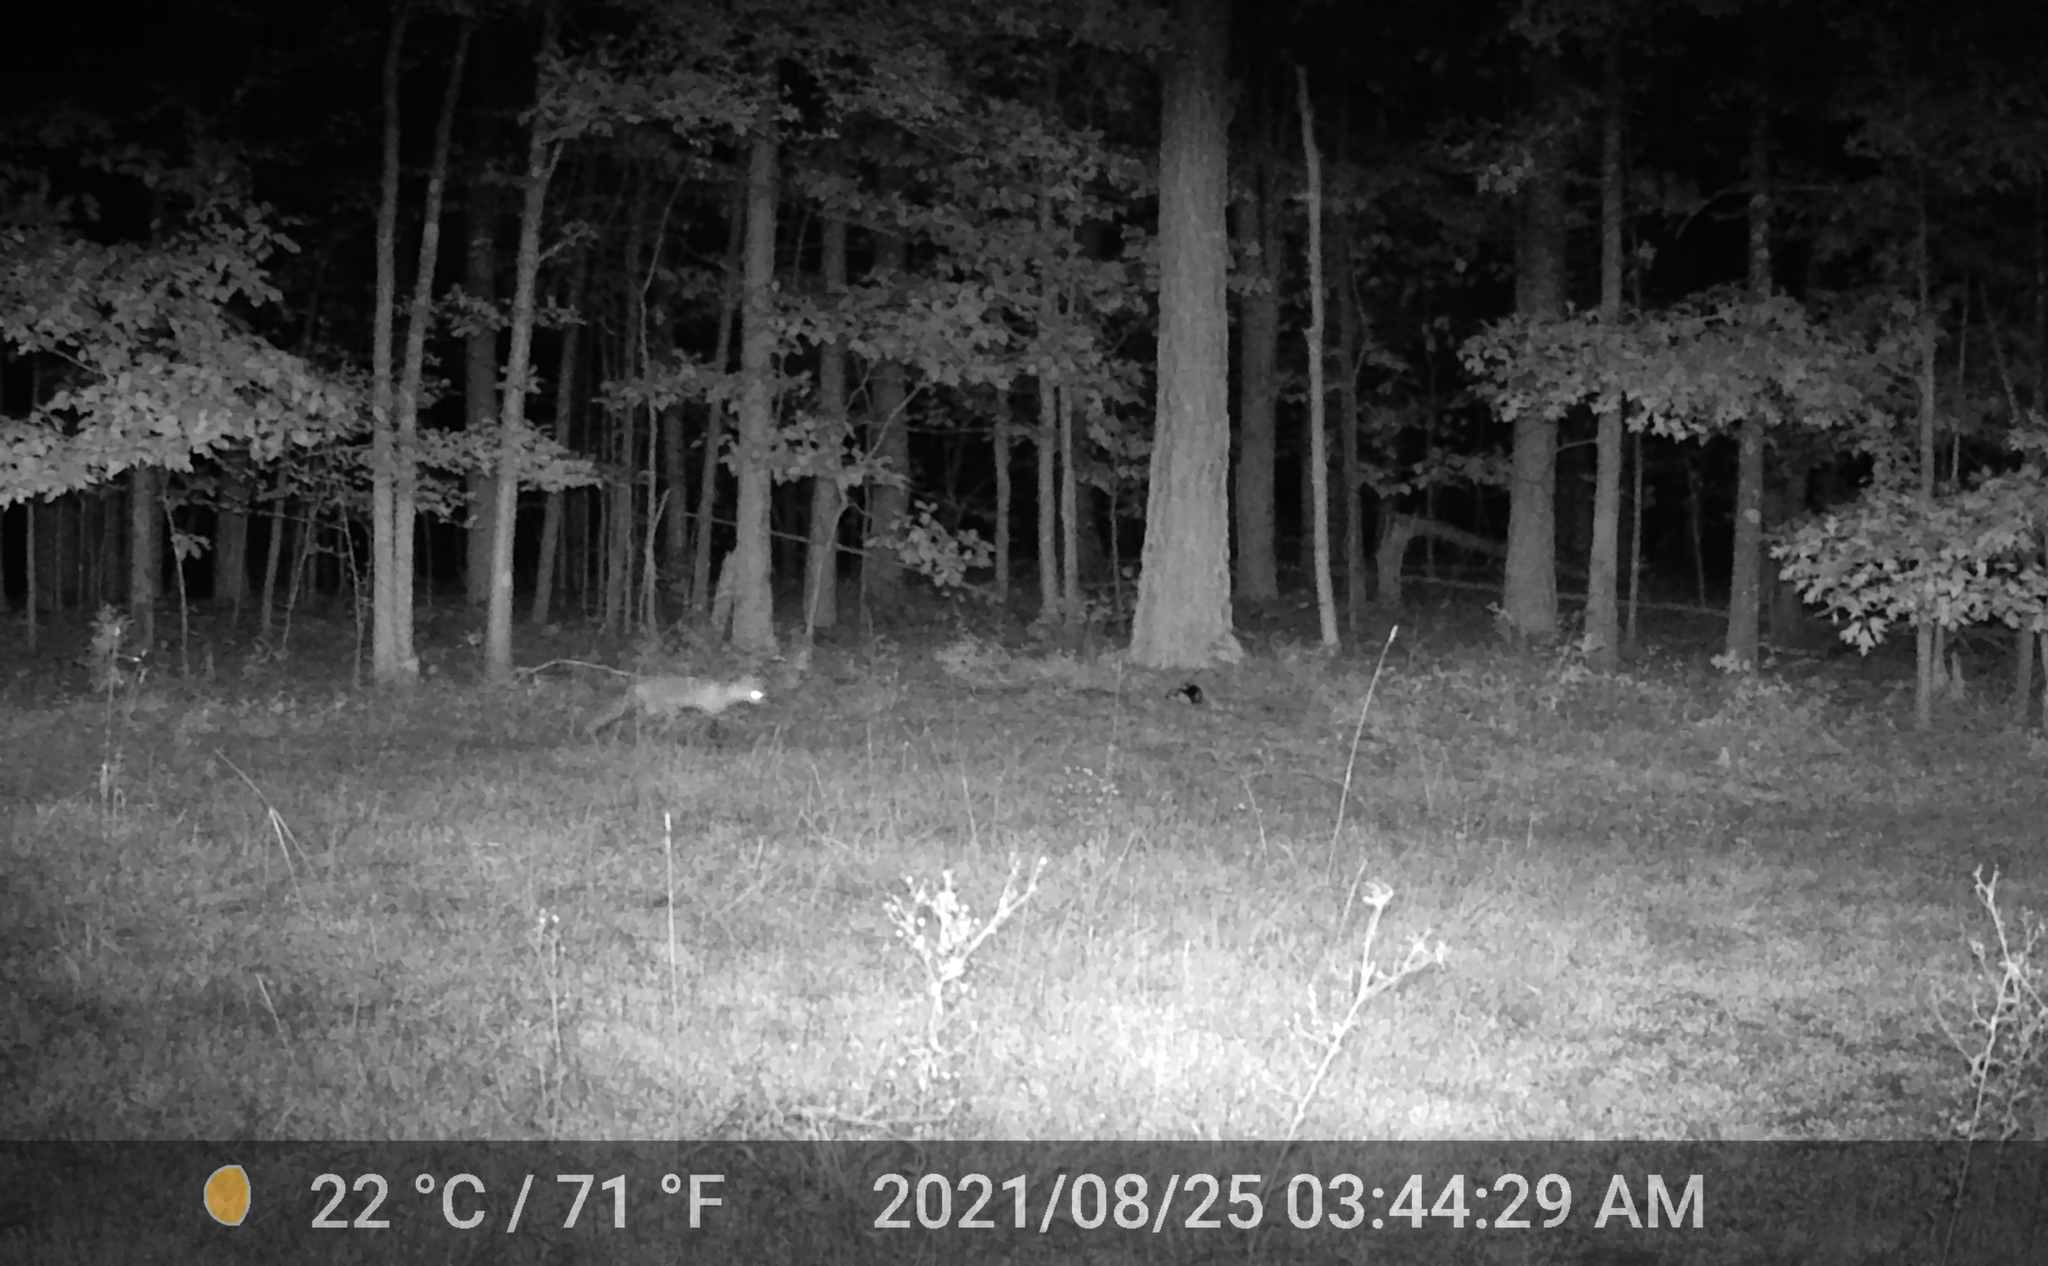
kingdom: Animalia
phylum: Chordata
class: Mammalia
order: Carnivora
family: Canidae
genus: Urocyon
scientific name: Urocyon cinereoargenteus
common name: Gray fox
